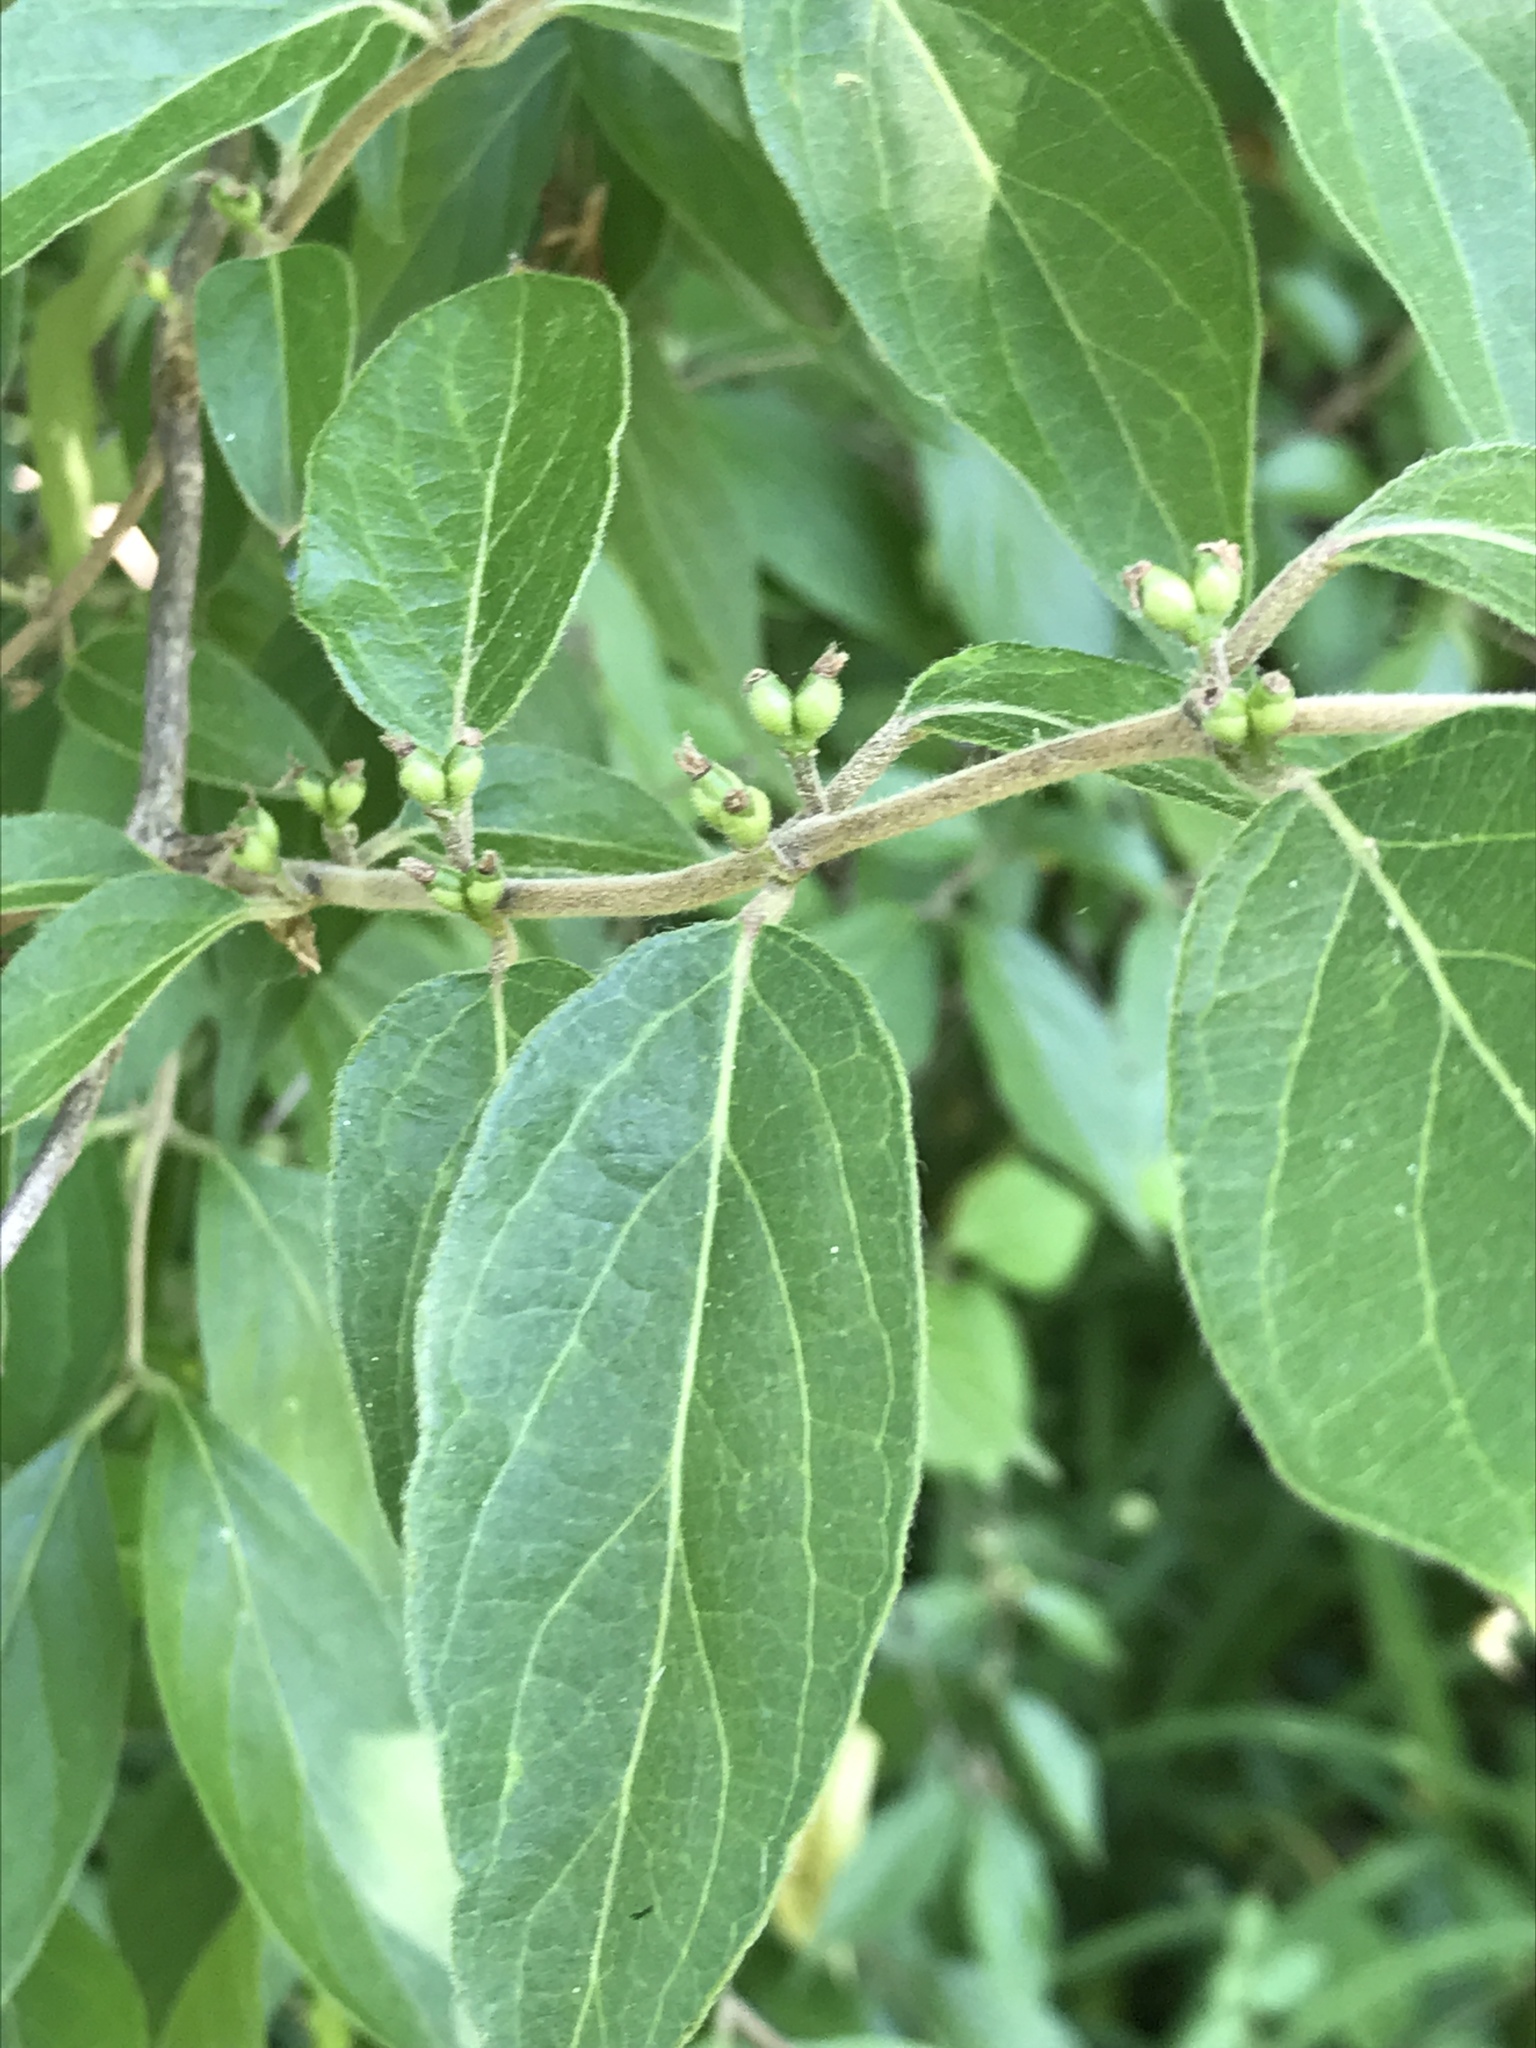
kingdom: Plantae
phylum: Tracheophyta
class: Magnoliopsida
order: Dipsacales
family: Caprifoliaceae
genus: Lonicera
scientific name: Lonicera maackii
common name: Amur honeysuckle
